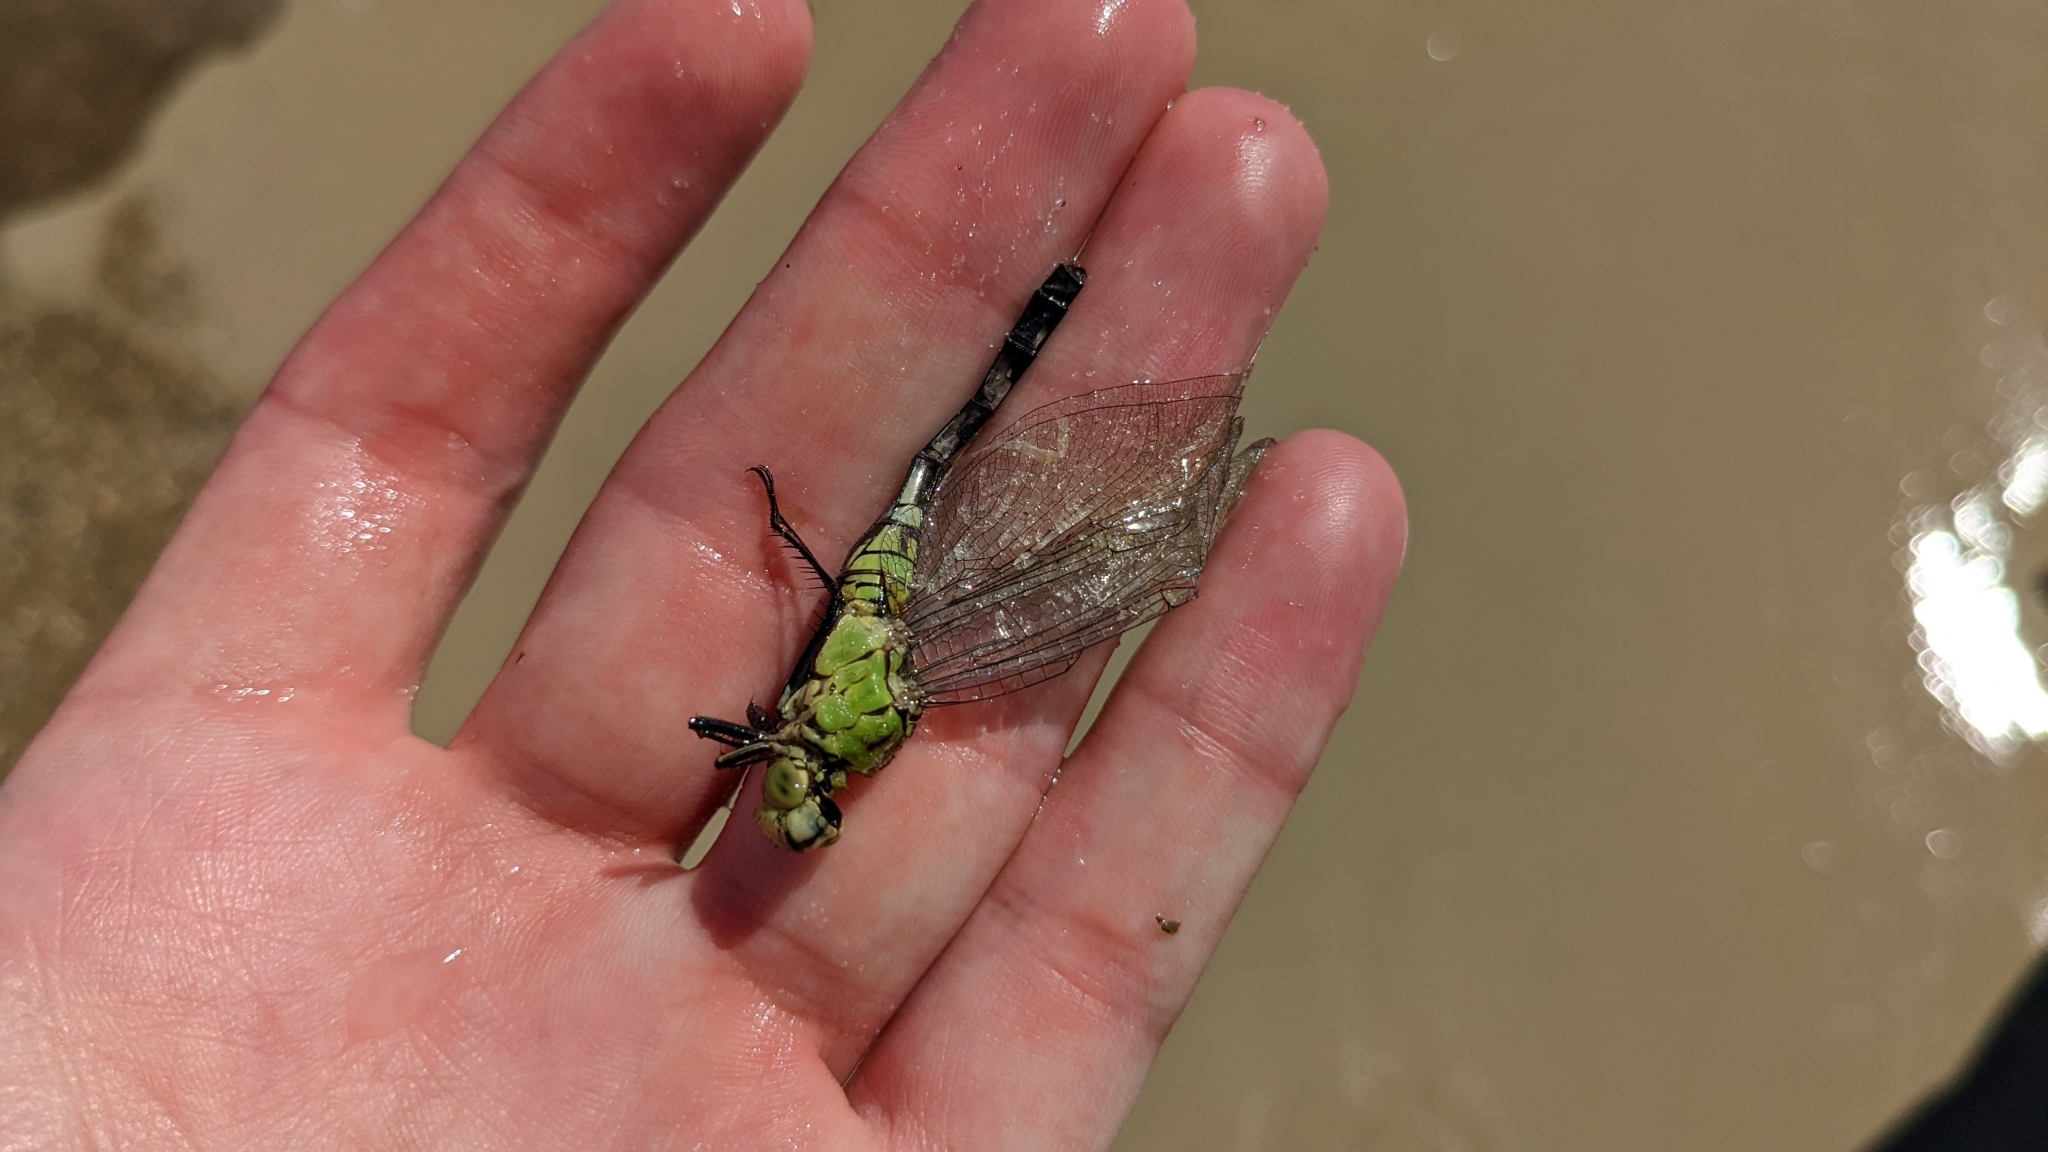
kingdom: Animalia
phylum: Arthropoda
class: Insecta
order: Odonata
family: Libellulidae
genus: Erythemis
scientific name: Erythemis simplicicollis
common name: Eastern pondhawk
